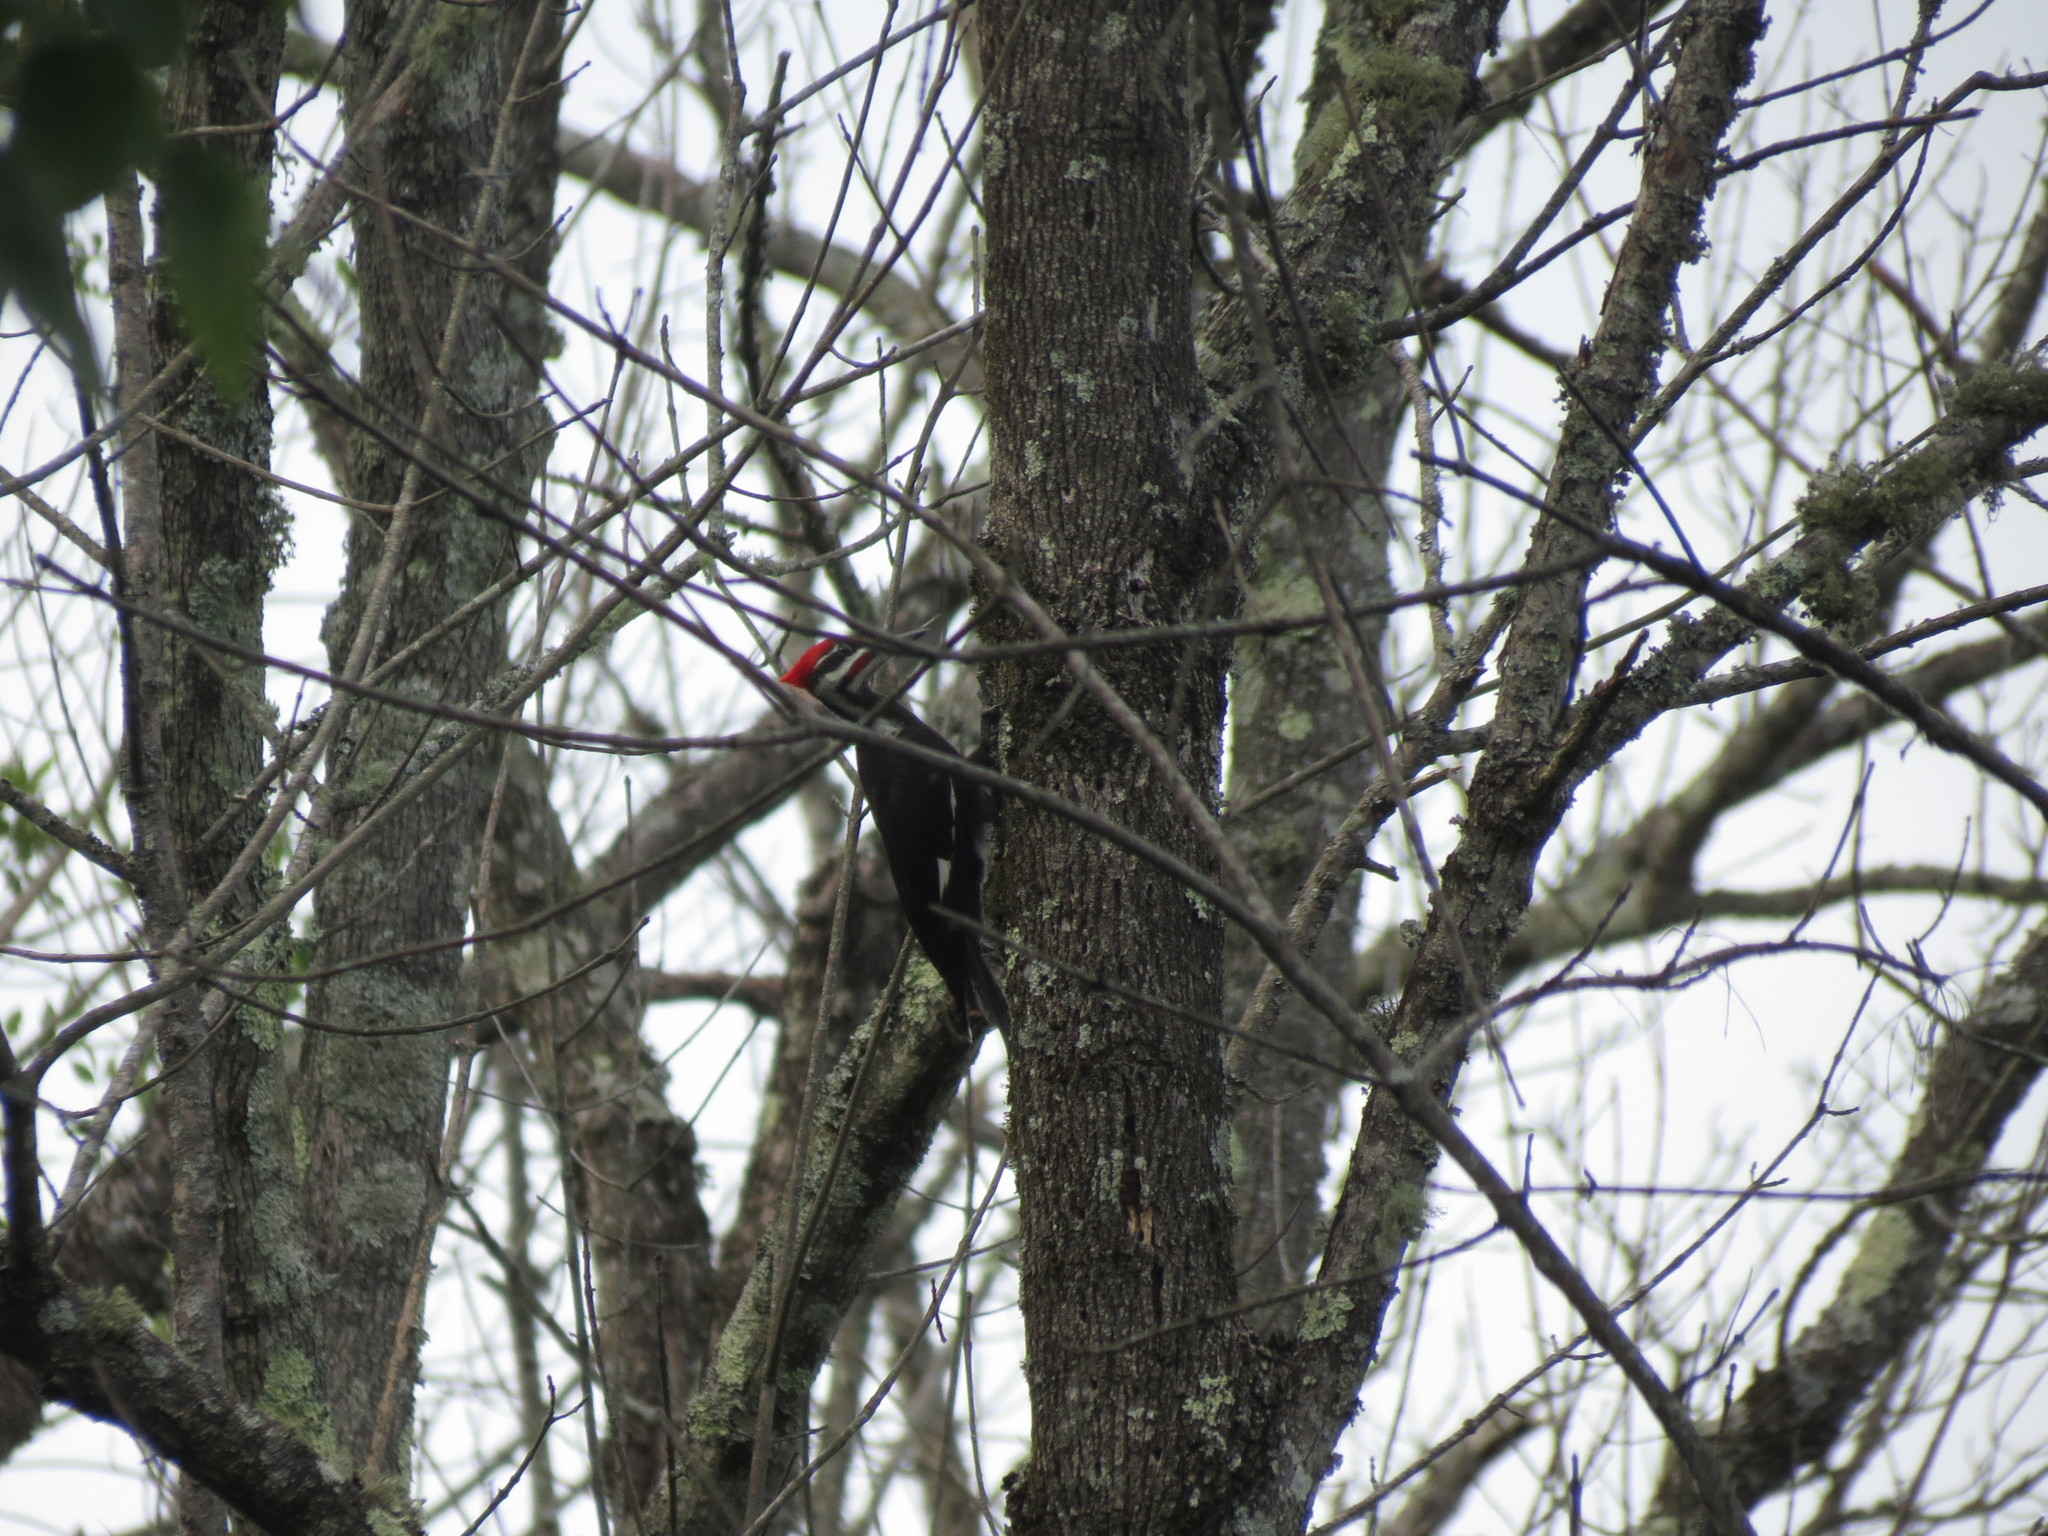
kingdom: Animalia
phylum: Chordata
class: Aves
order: Piciformes
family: Picidae
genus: Dryocopus
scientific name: Dryocopus pileatus
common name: Pileated woodpecker
